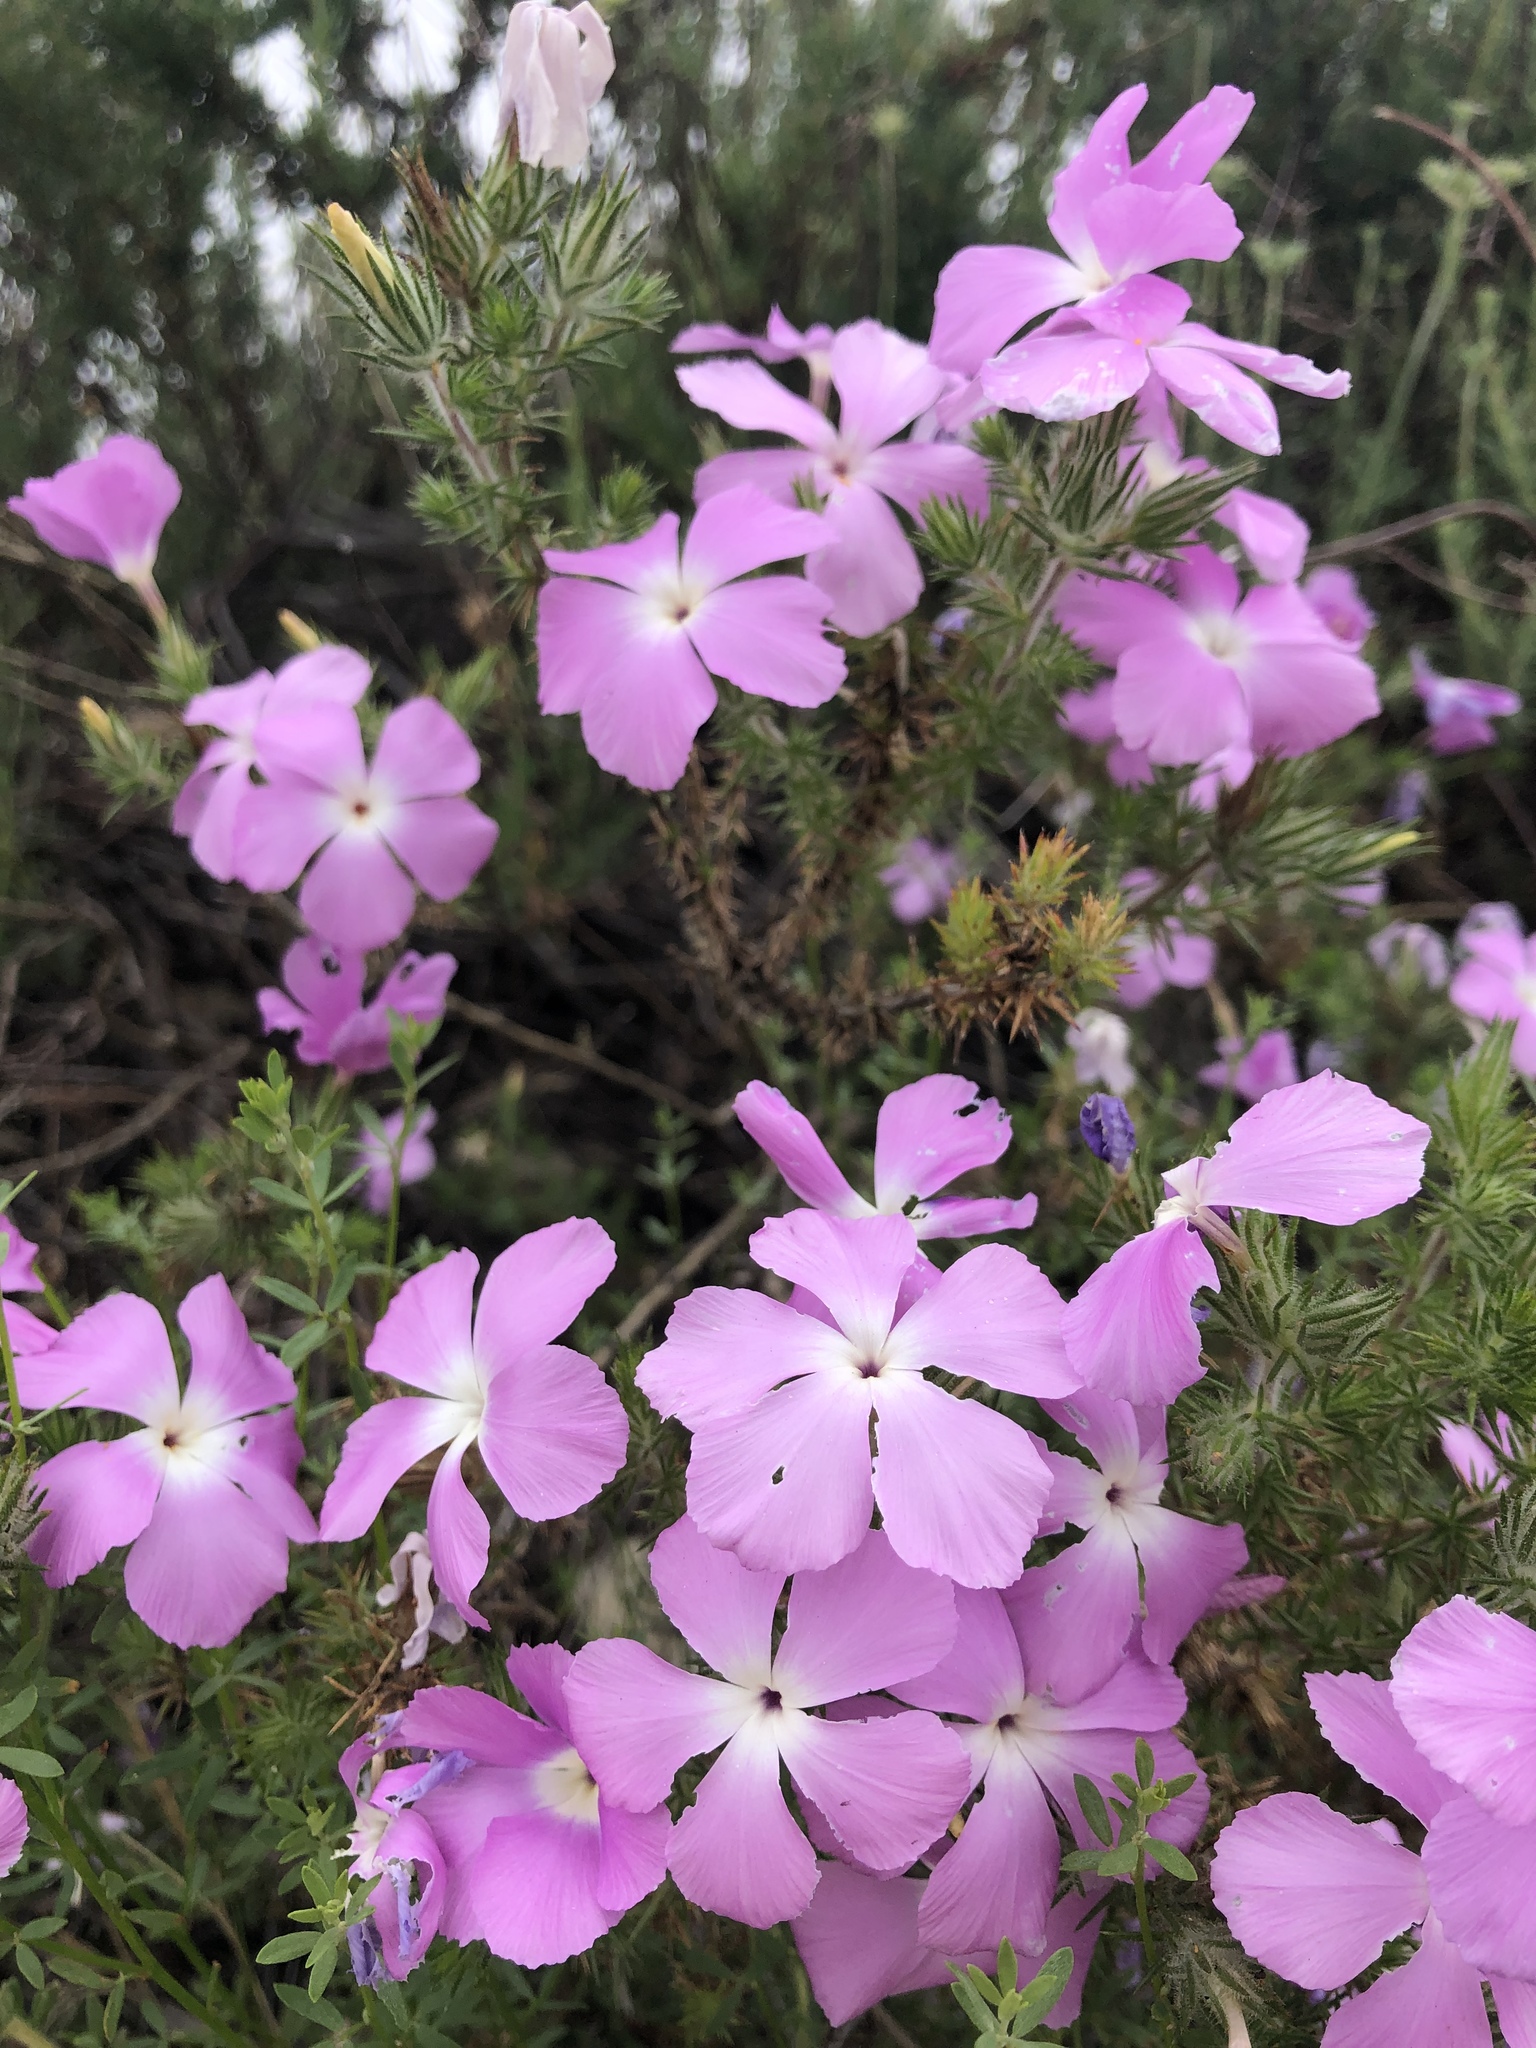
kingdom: Plantae
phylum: Tracheophyta
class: Magnoliopsida
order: Ericales
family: Polemoniaceae
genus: Linanthus
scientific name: Linanthus californicus
